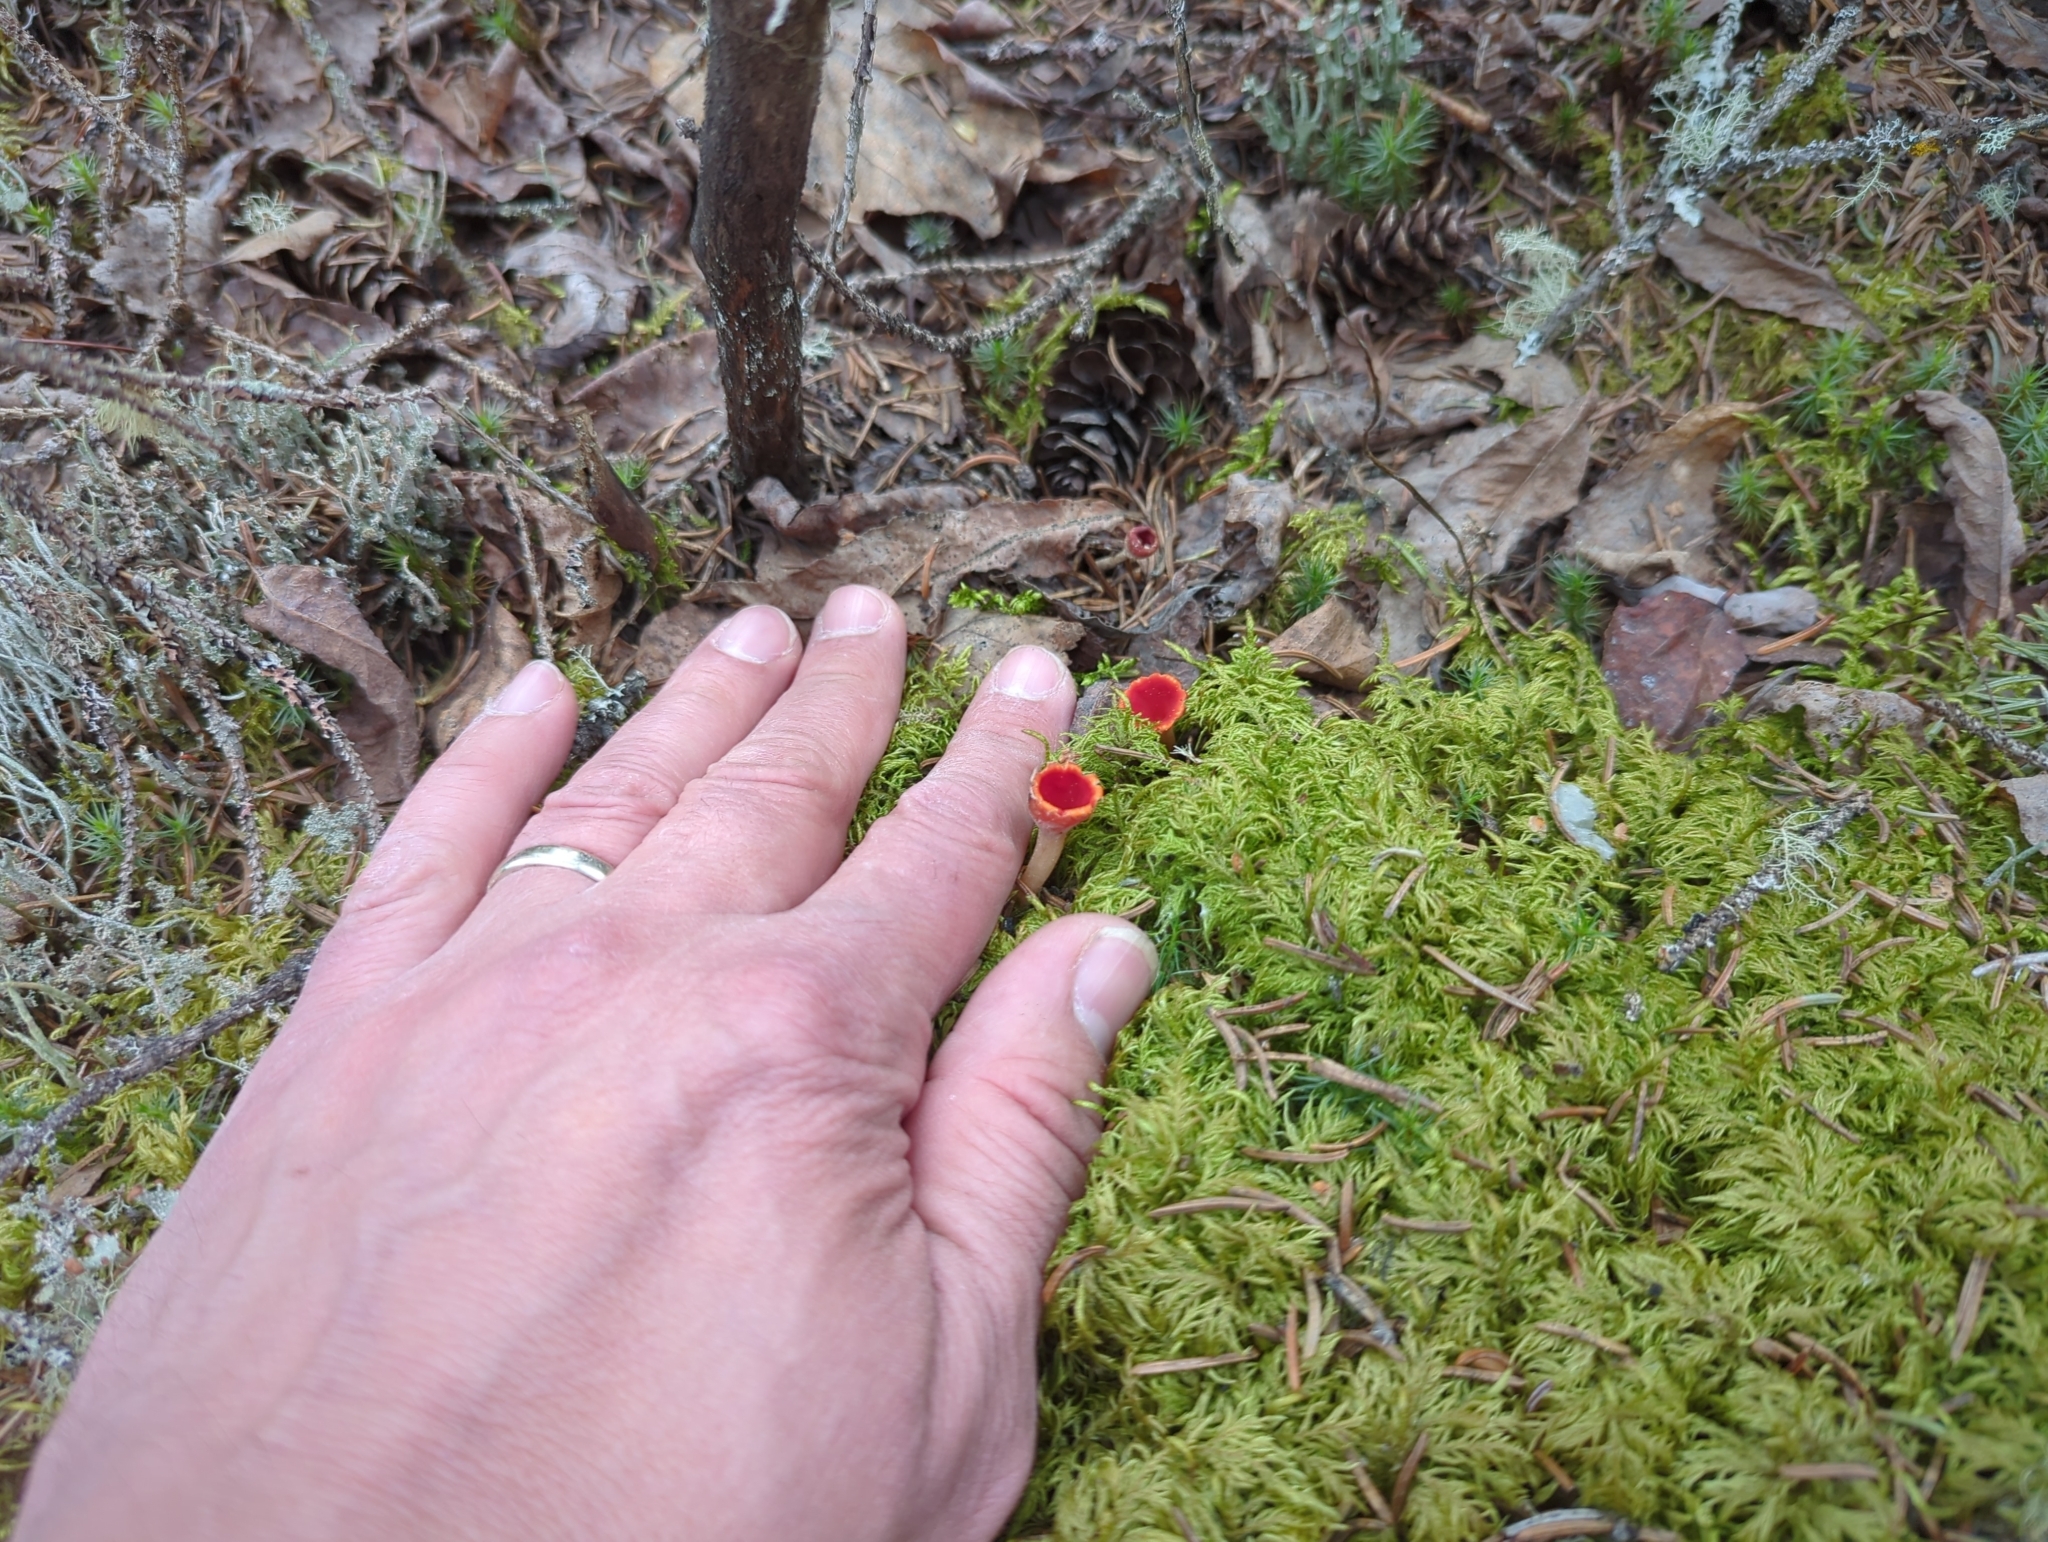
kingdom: Fungi
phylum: Ascomycota
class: Pezizomycetes
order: Pezizales
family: Sarcoscyphaceae
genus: Microstoma
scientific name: Microstoma protractum
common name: Rosy goblet
